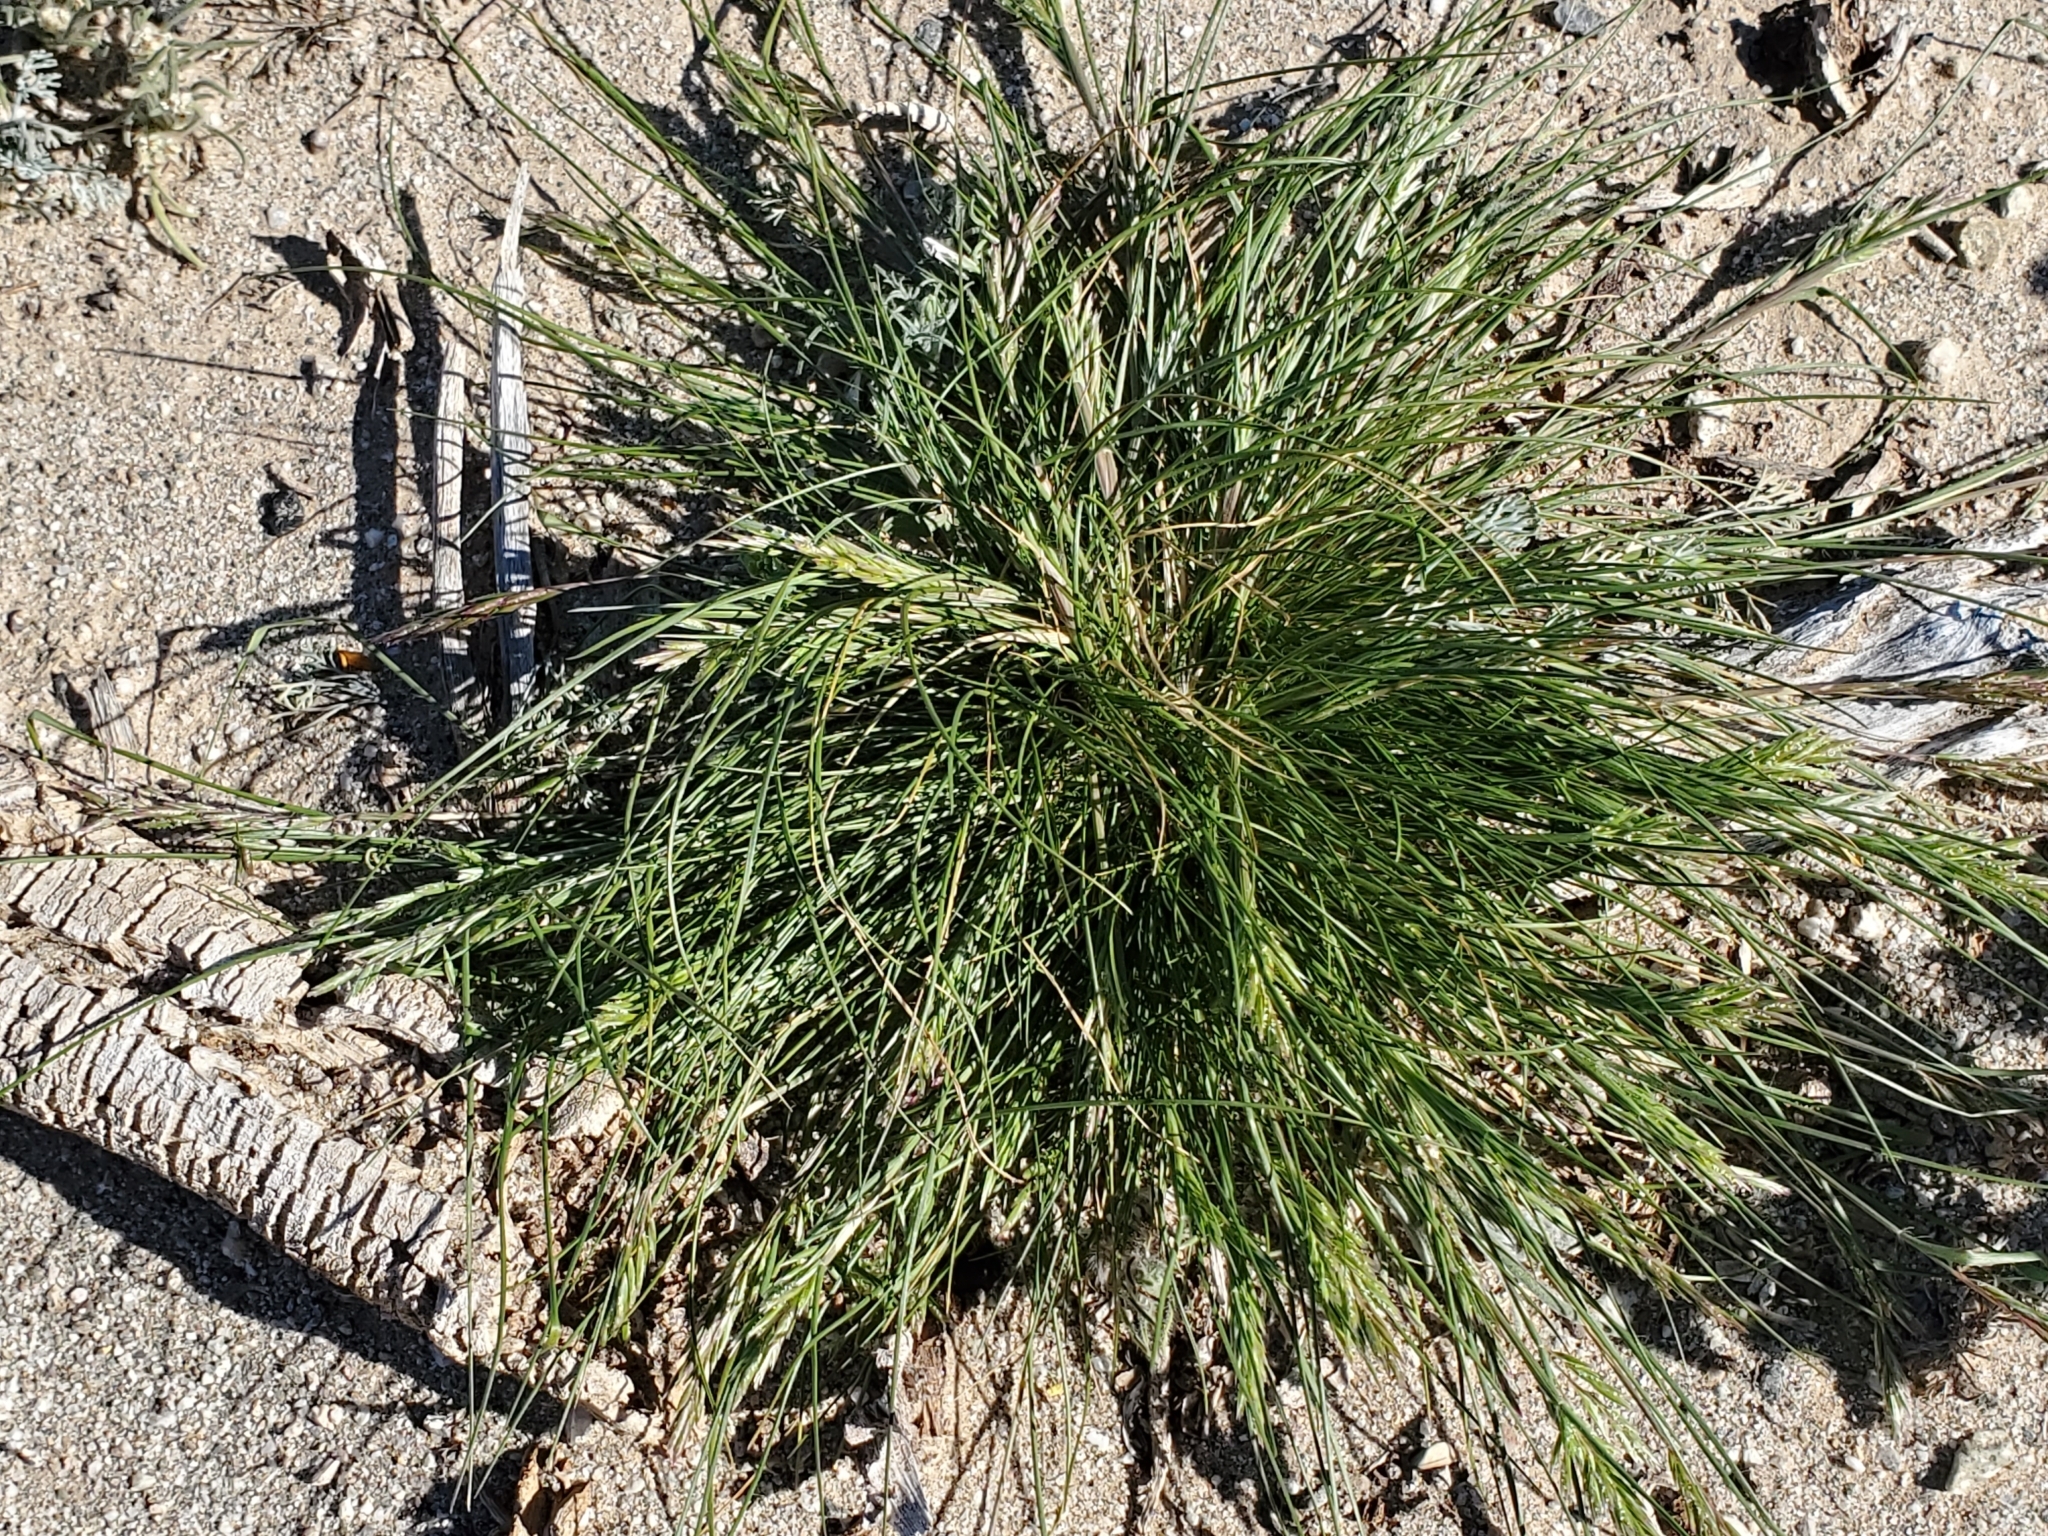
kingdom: Plantae
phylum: Tracheophyta
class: Liliopsida
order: Poales
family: Poaceae
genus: Schismus
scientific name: Schismus barbatus
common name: Kelch-grass
